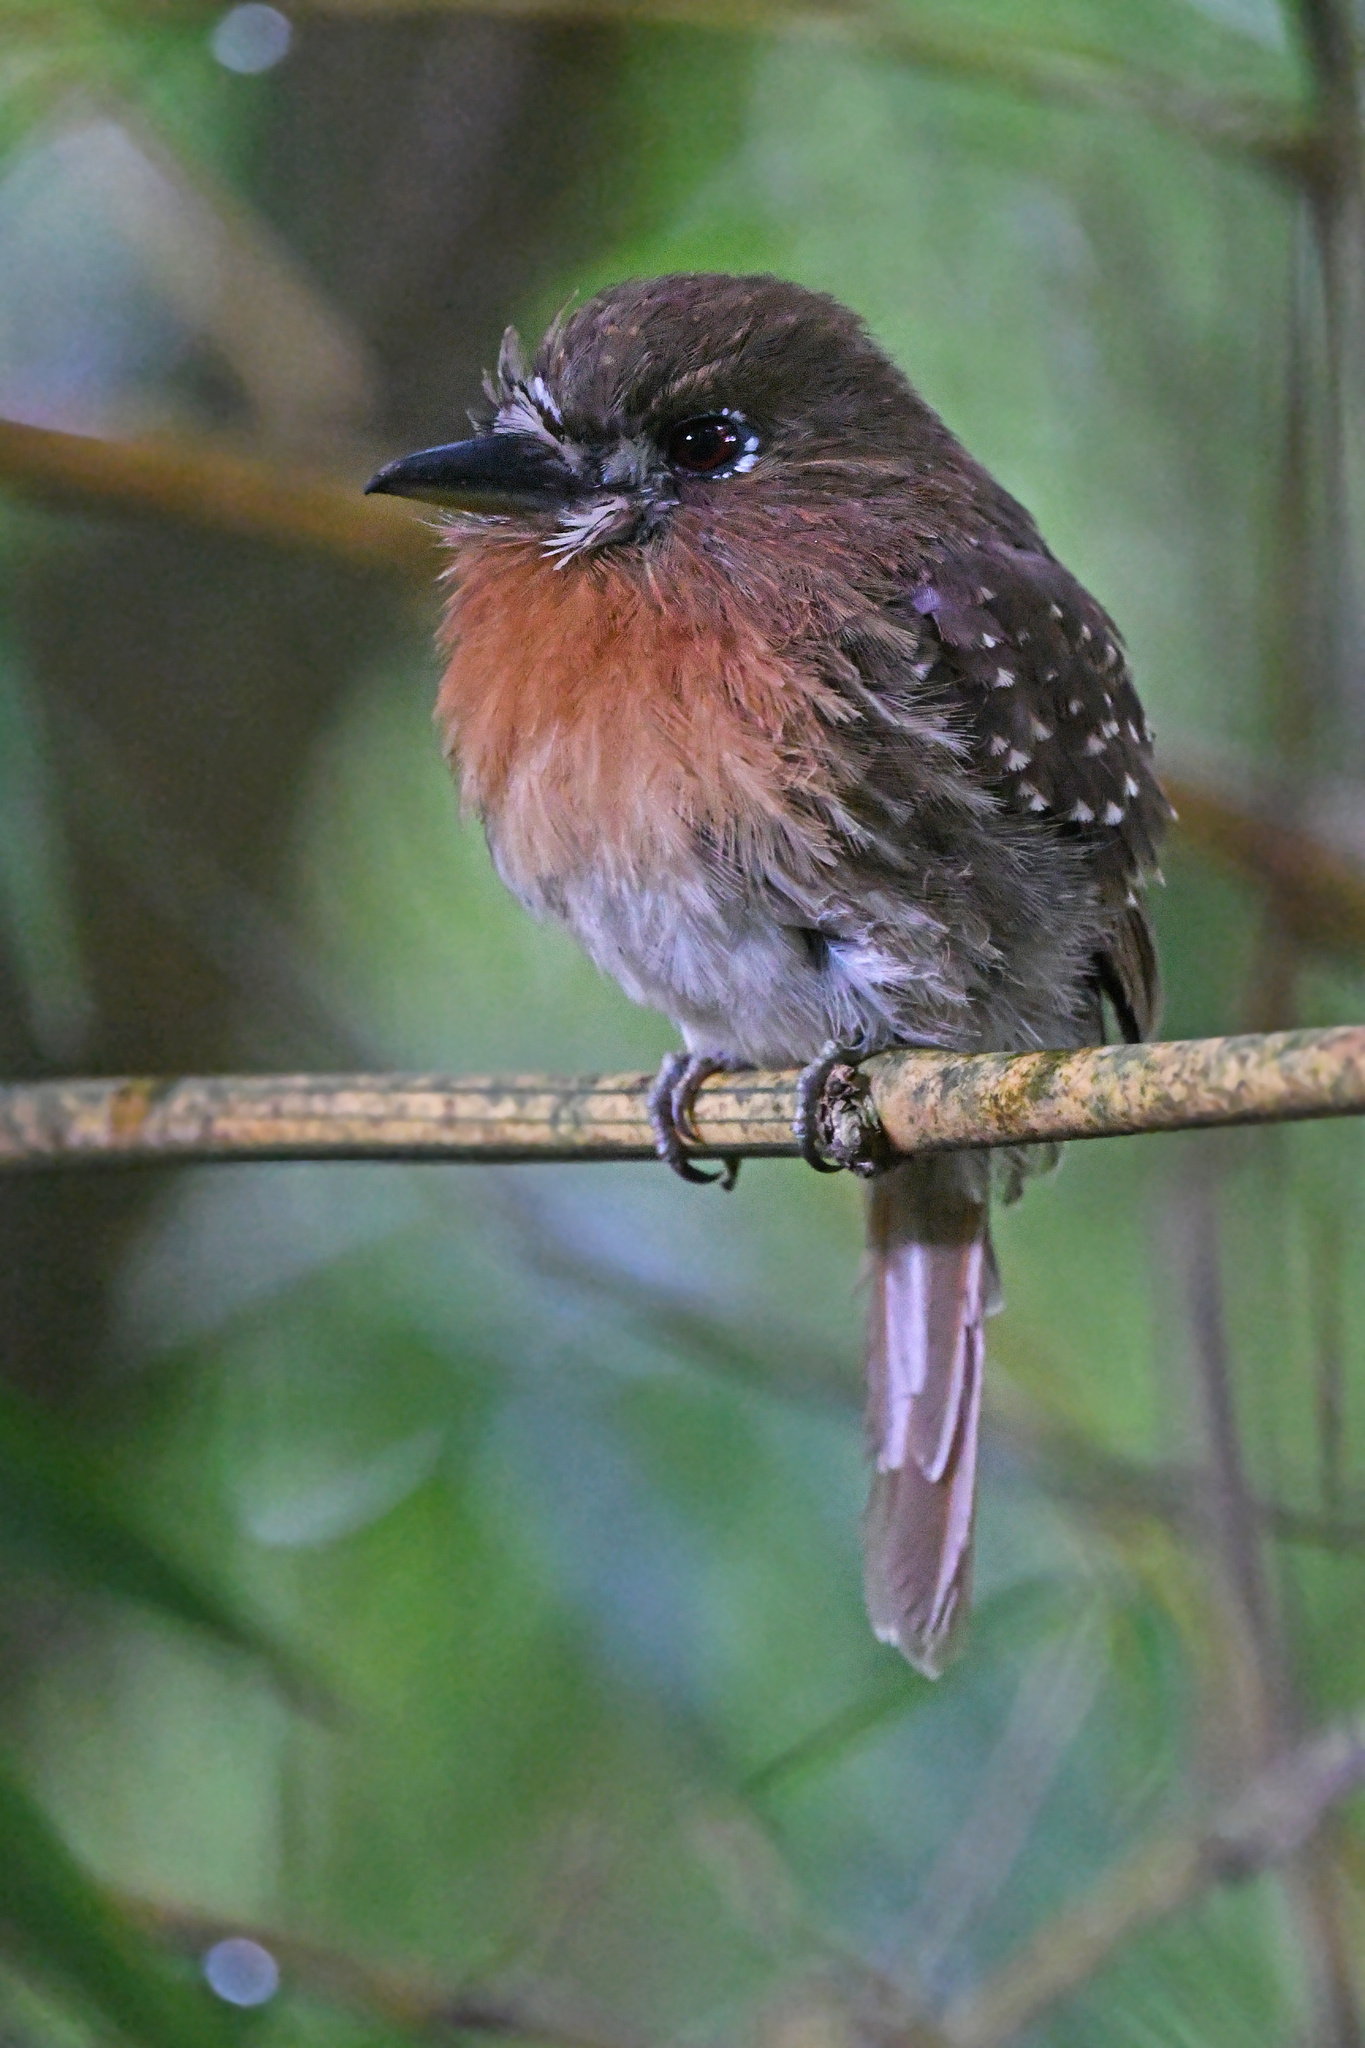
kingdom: Animalia
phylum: Chordata
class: Aves
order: Piciformes
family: Bucconidae
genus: Malacoptila
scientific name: Malacoptila mystacalis
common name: Moustached puffbird
